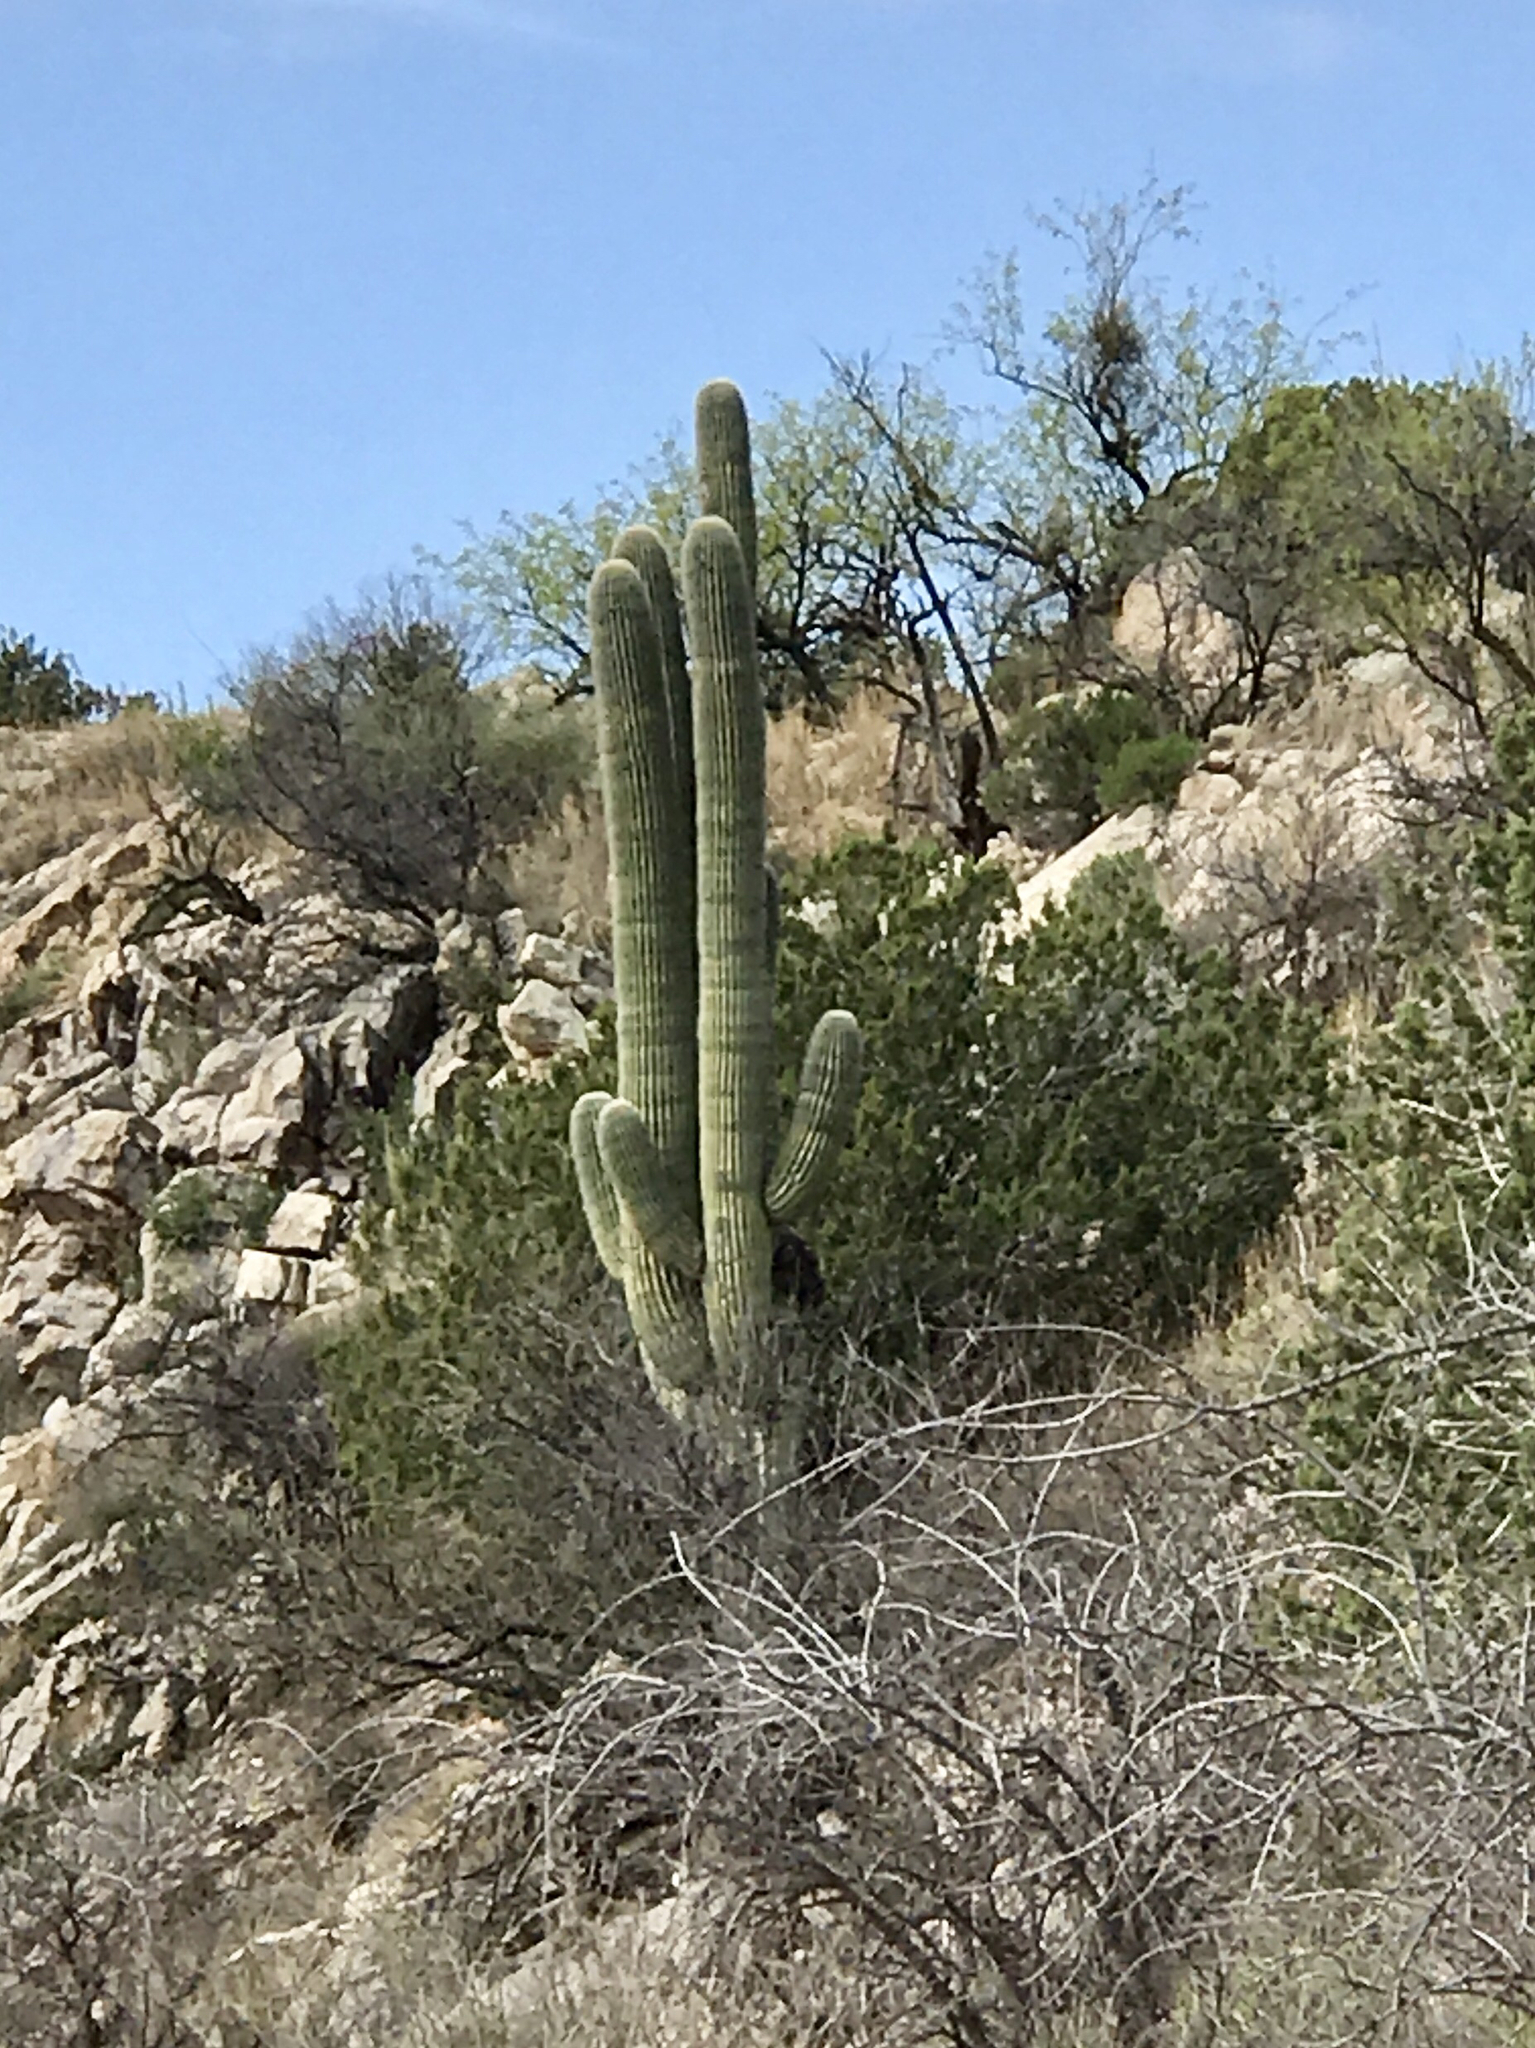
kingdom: Plantae
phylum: Tracheophyta
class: Magnoliopsida
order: Caryophyllales
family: Cactaceae
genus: Carnegiea
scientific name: Carnegiea gigantea
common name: Saguaro
